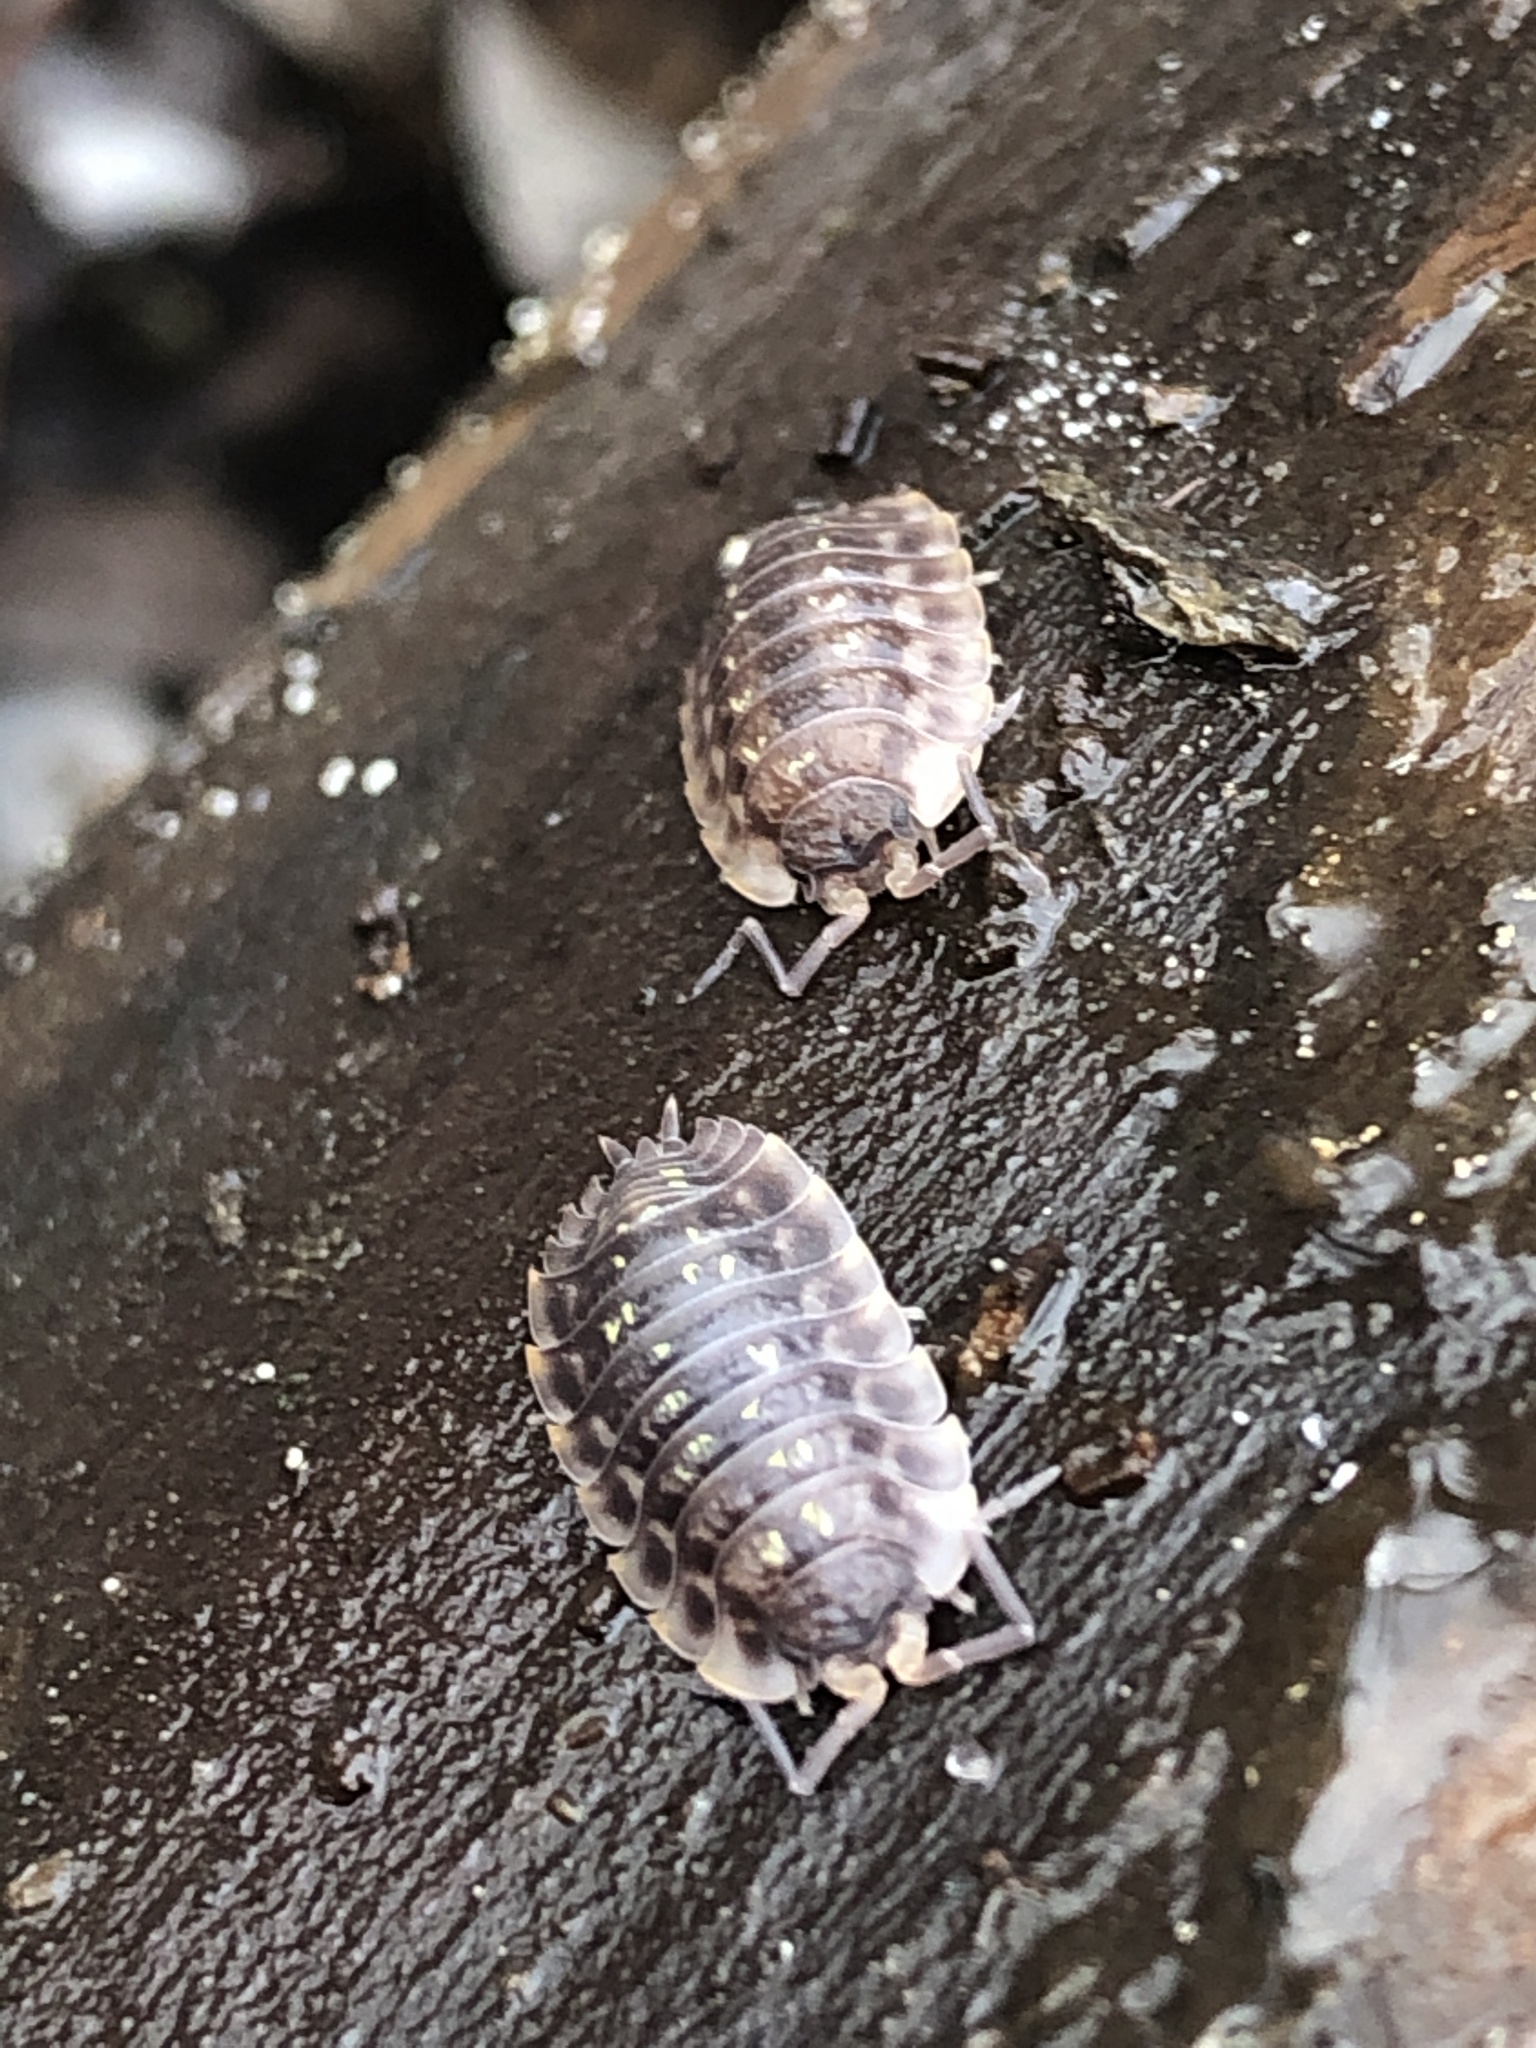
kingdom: Animalia
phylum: Arthropoda
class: Malacostraca
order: Isopoda
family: Oniscidae
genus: Oniscus
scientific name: Oniscus asellus
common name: Common shiny woodlouse
